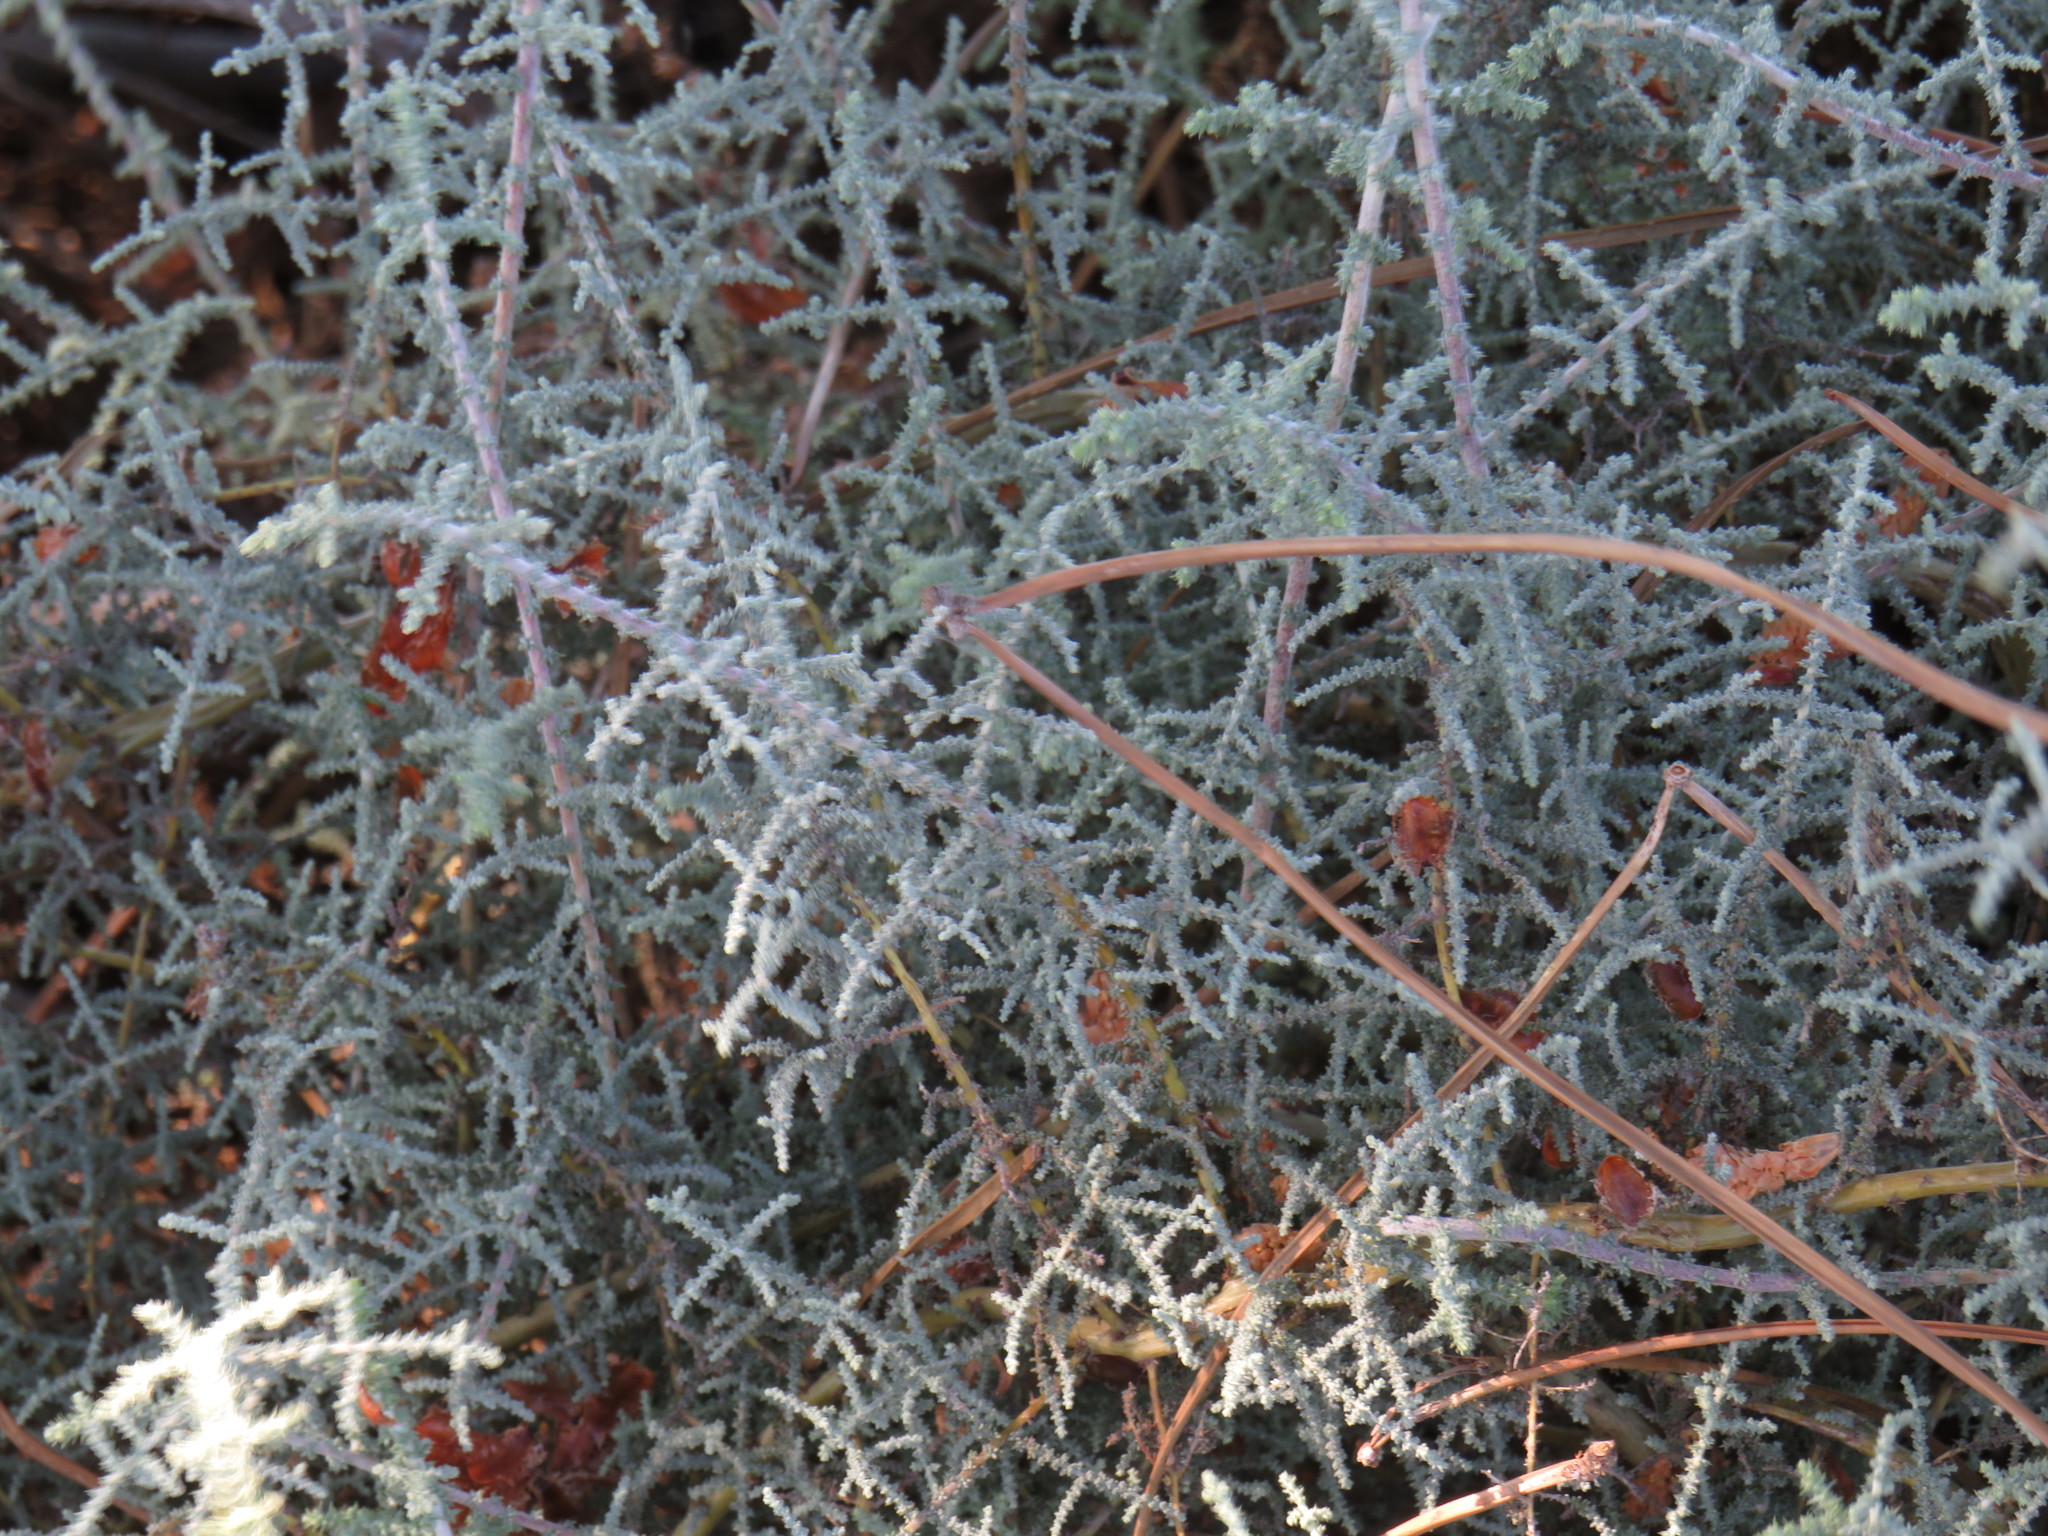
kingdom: Plantae
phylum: Tracheophyta
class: Magnoliopsida
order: Asterales
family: Asteraceae
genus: Seriphium
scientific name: Seriphium plumosum
